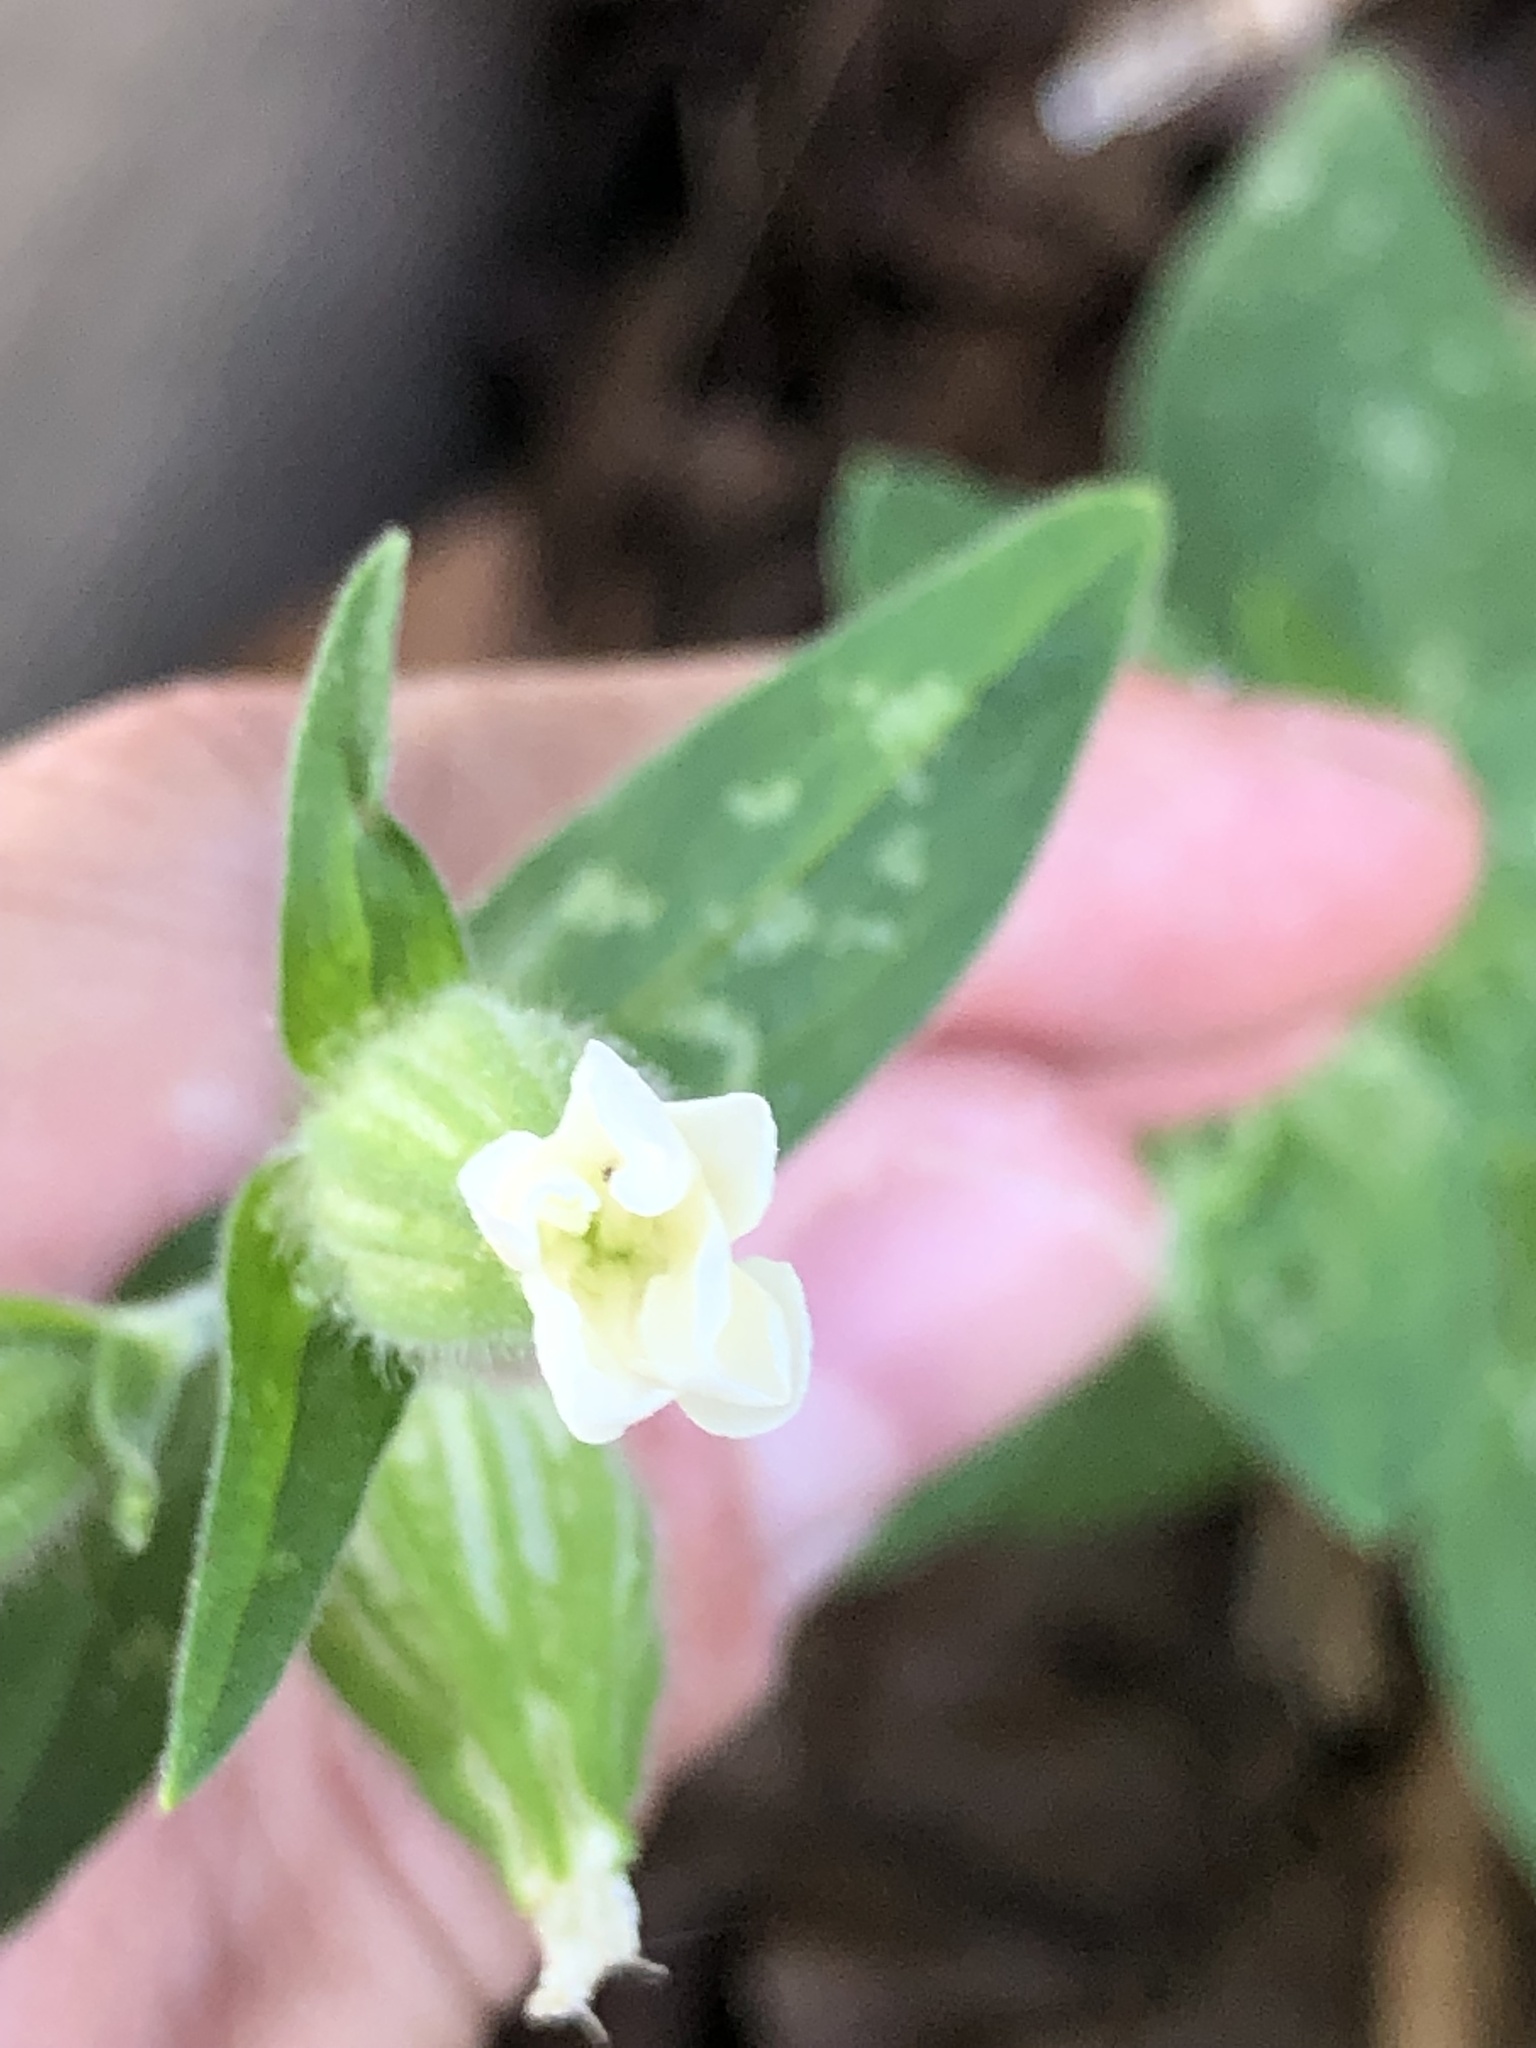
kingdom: Plantae
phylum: Tracheophyta
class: Magnoliopsida
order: Caryophyllales
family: Caryophyllaceae
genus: Silene
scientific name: Silene latifolia
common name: White campion
